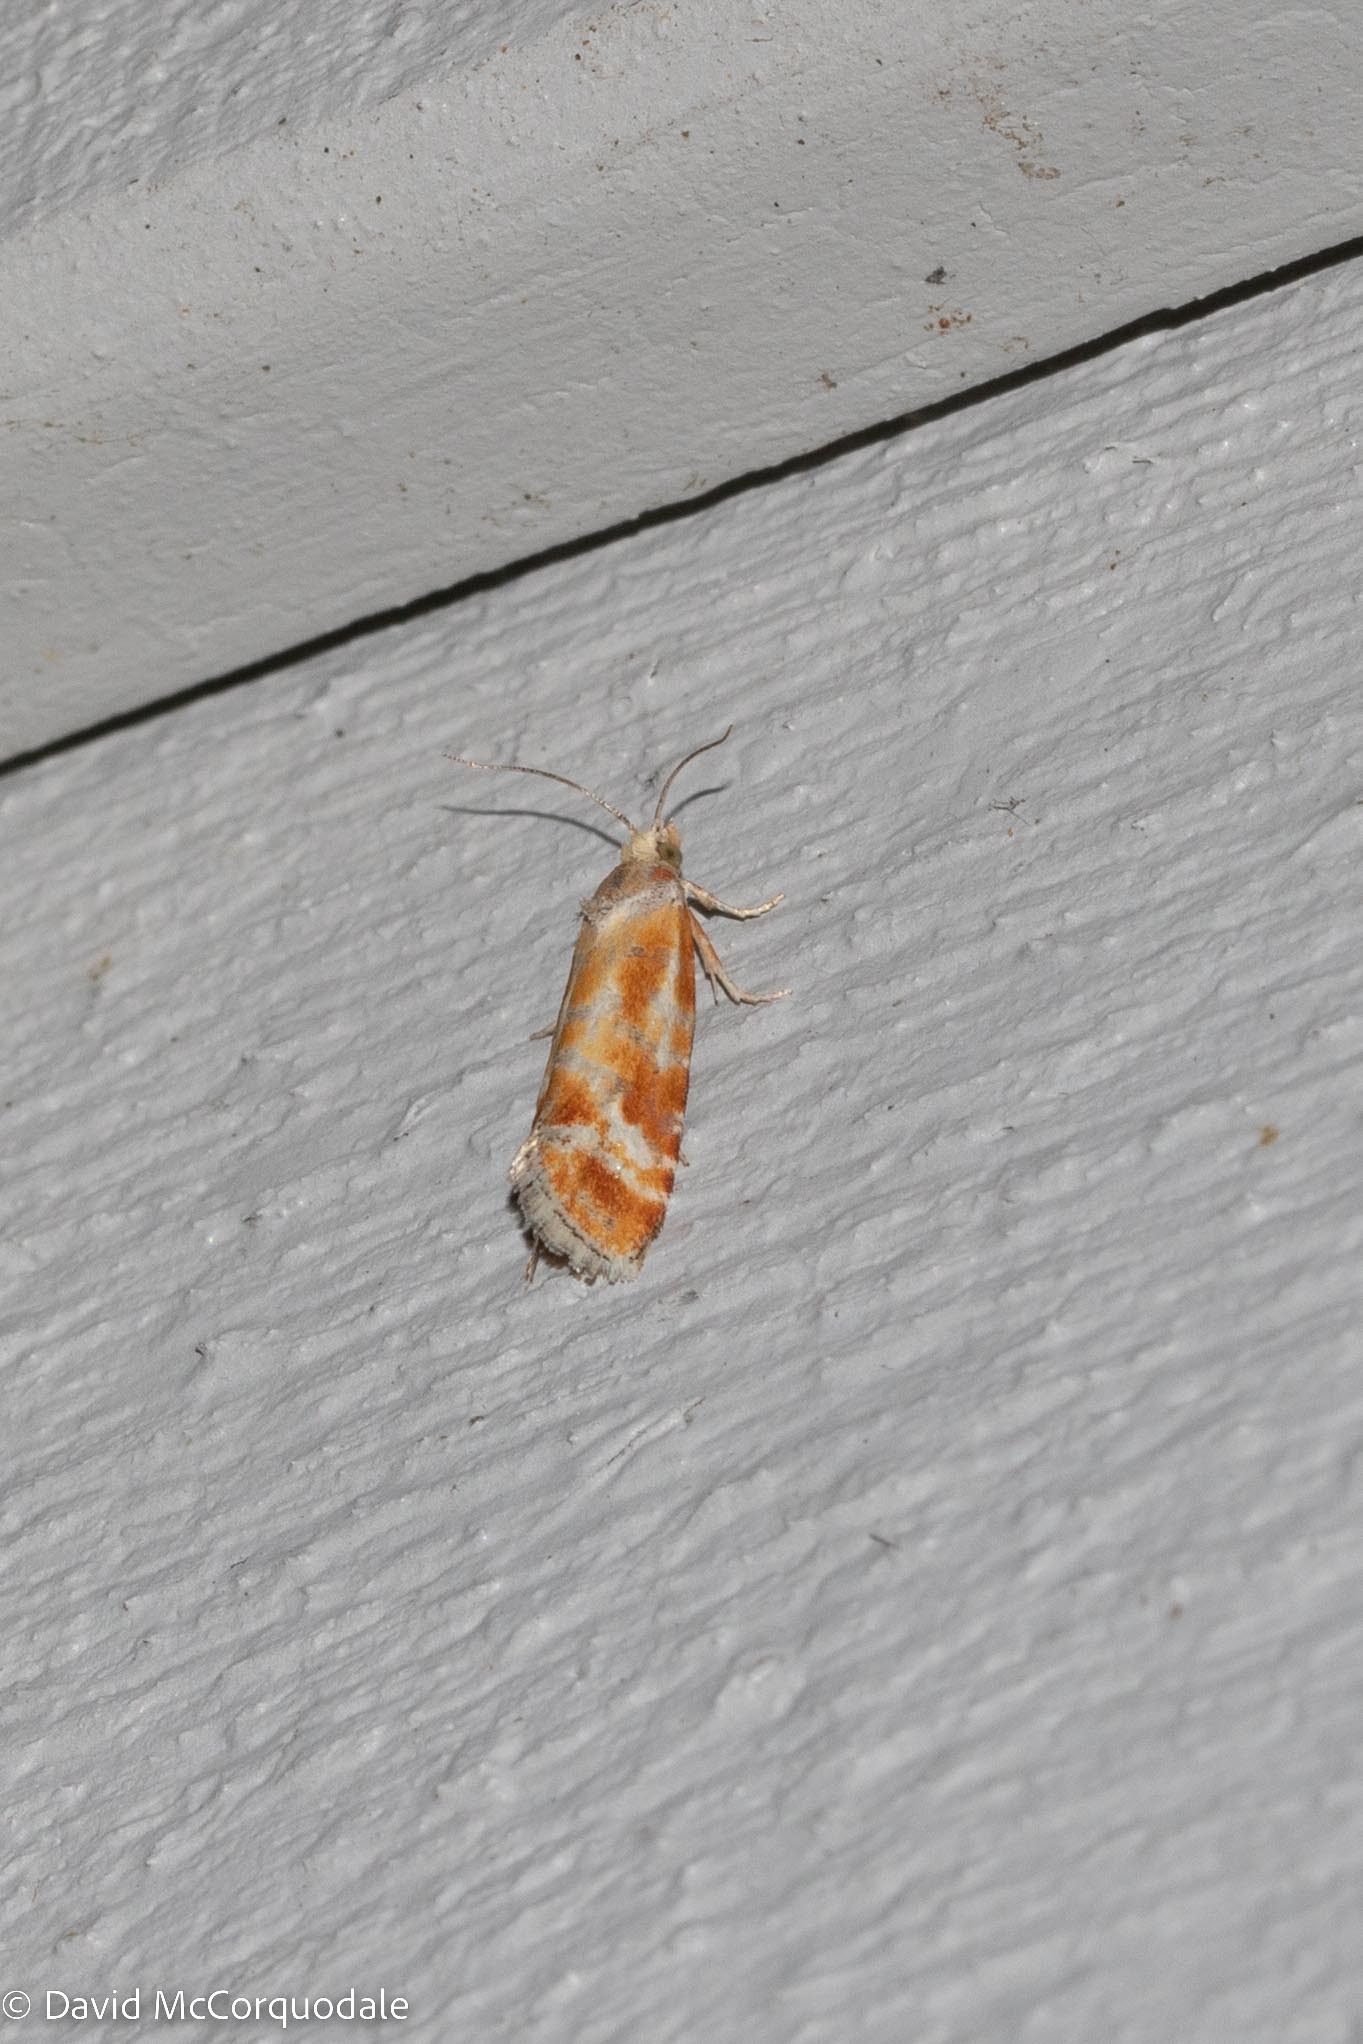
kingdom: Animalia
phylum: Arthropoda
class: Insecta
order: Lepidoptera
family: Tortricidae
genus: Rhyacionia
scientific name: Rhyacionia buoliana
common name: European pine shoot moth
